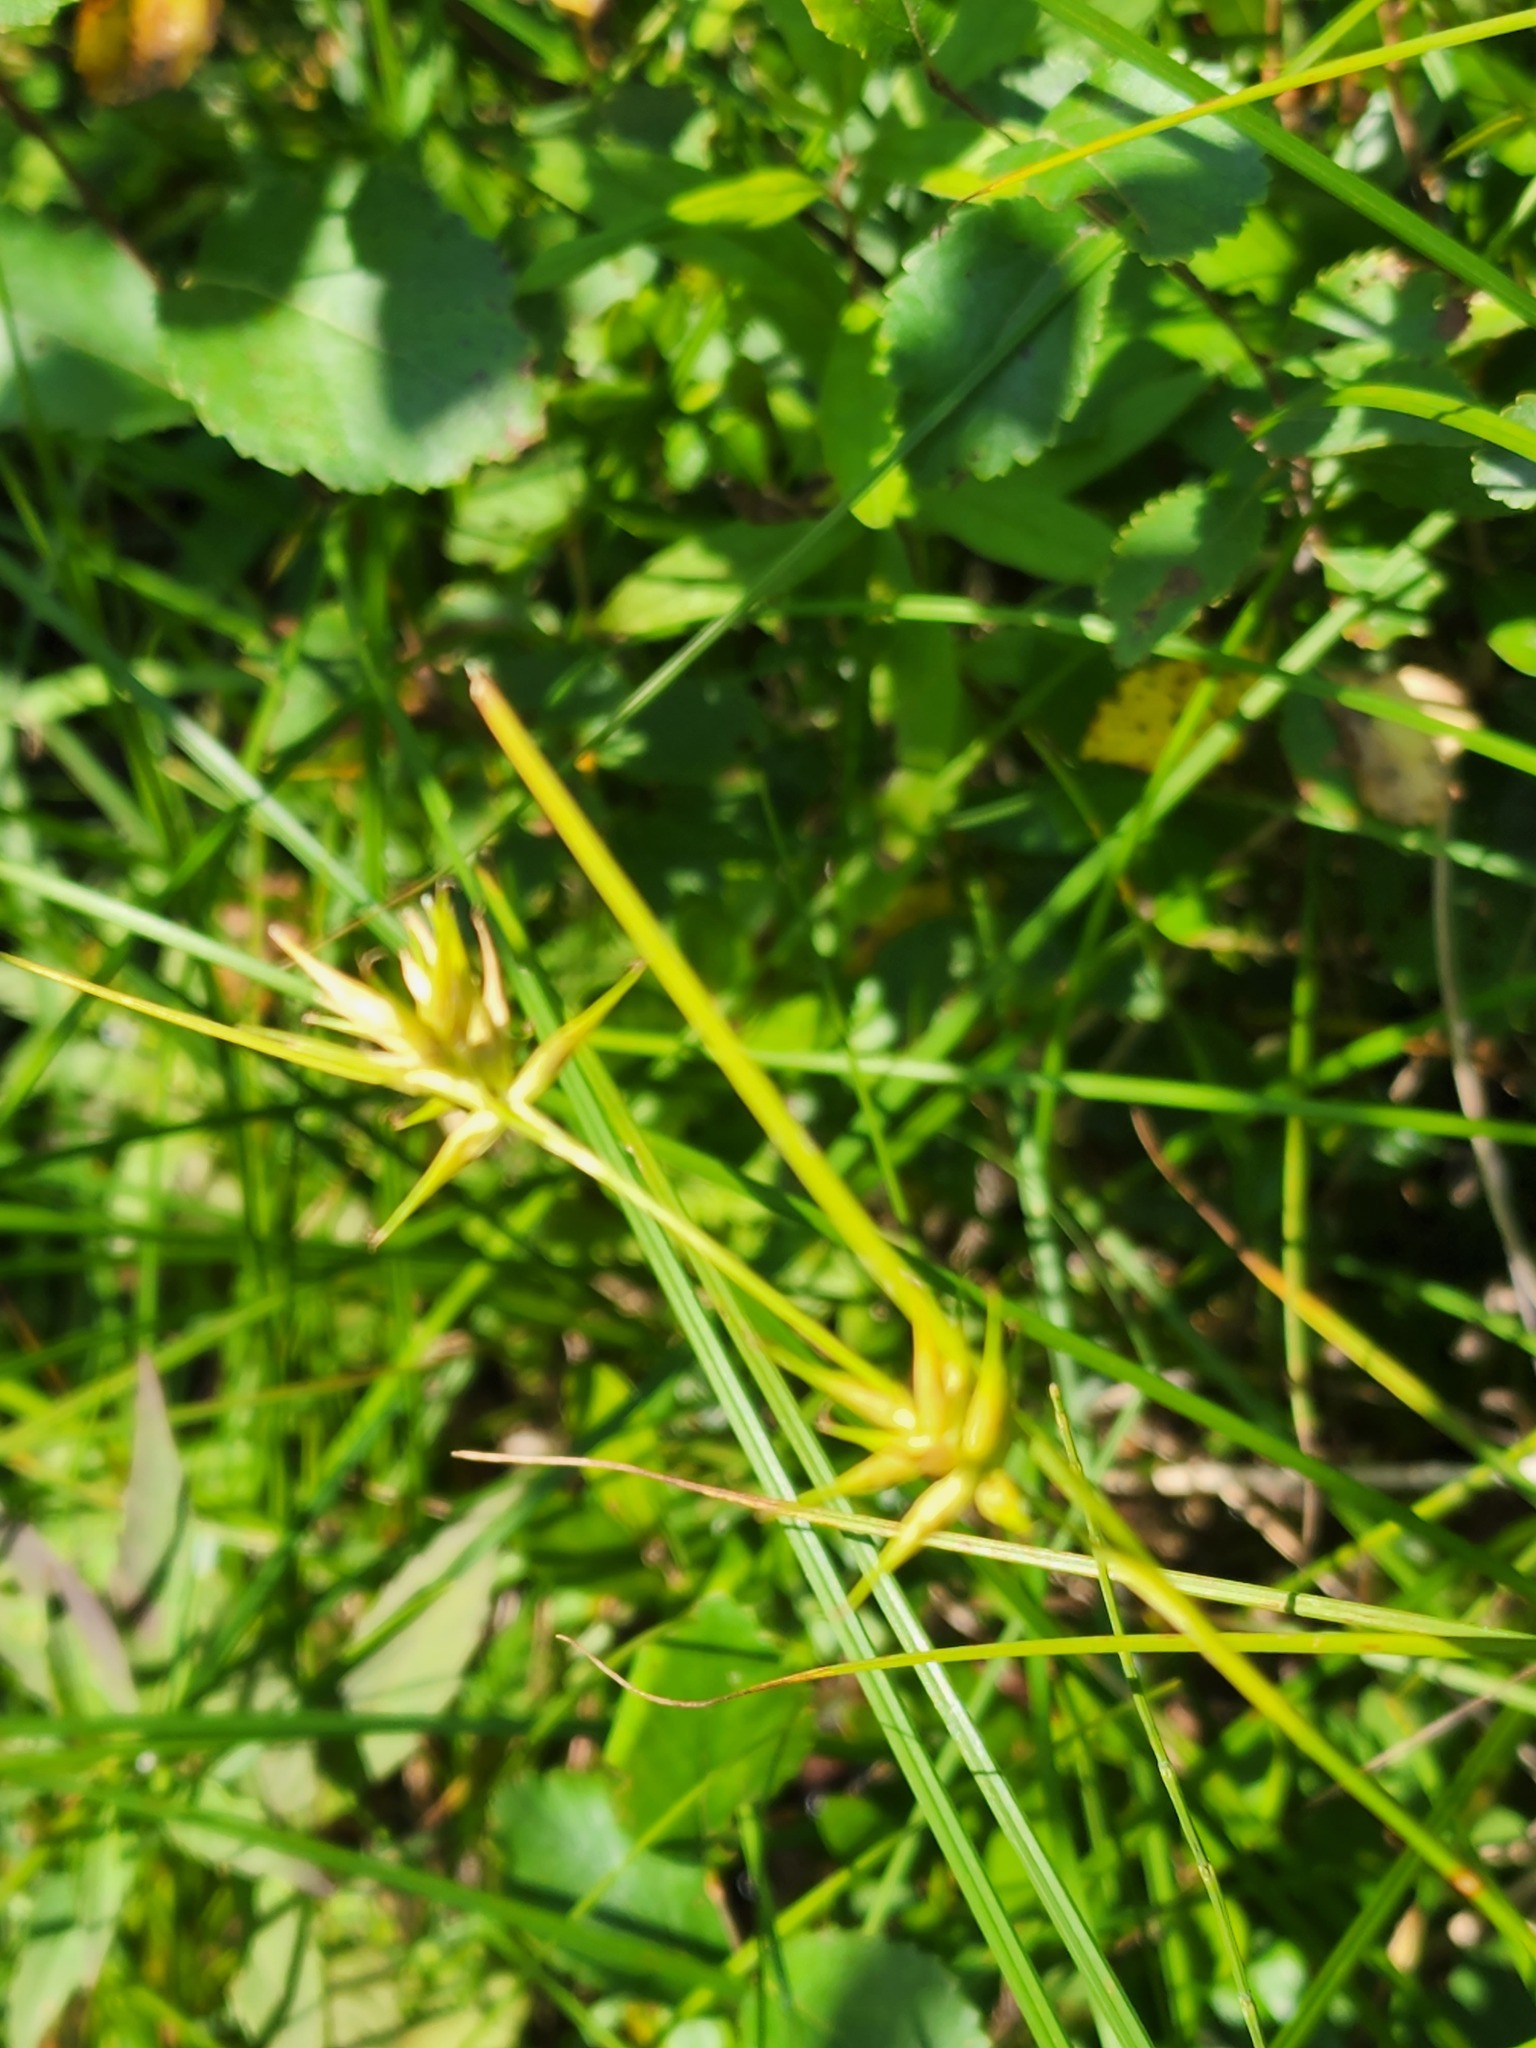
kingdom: Plantae
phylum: Tracheophyta
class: Liliopsida
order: Poales
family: Cyperaceae
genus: Carex
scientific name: Carex michauxiana
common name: Michaux's sedge
